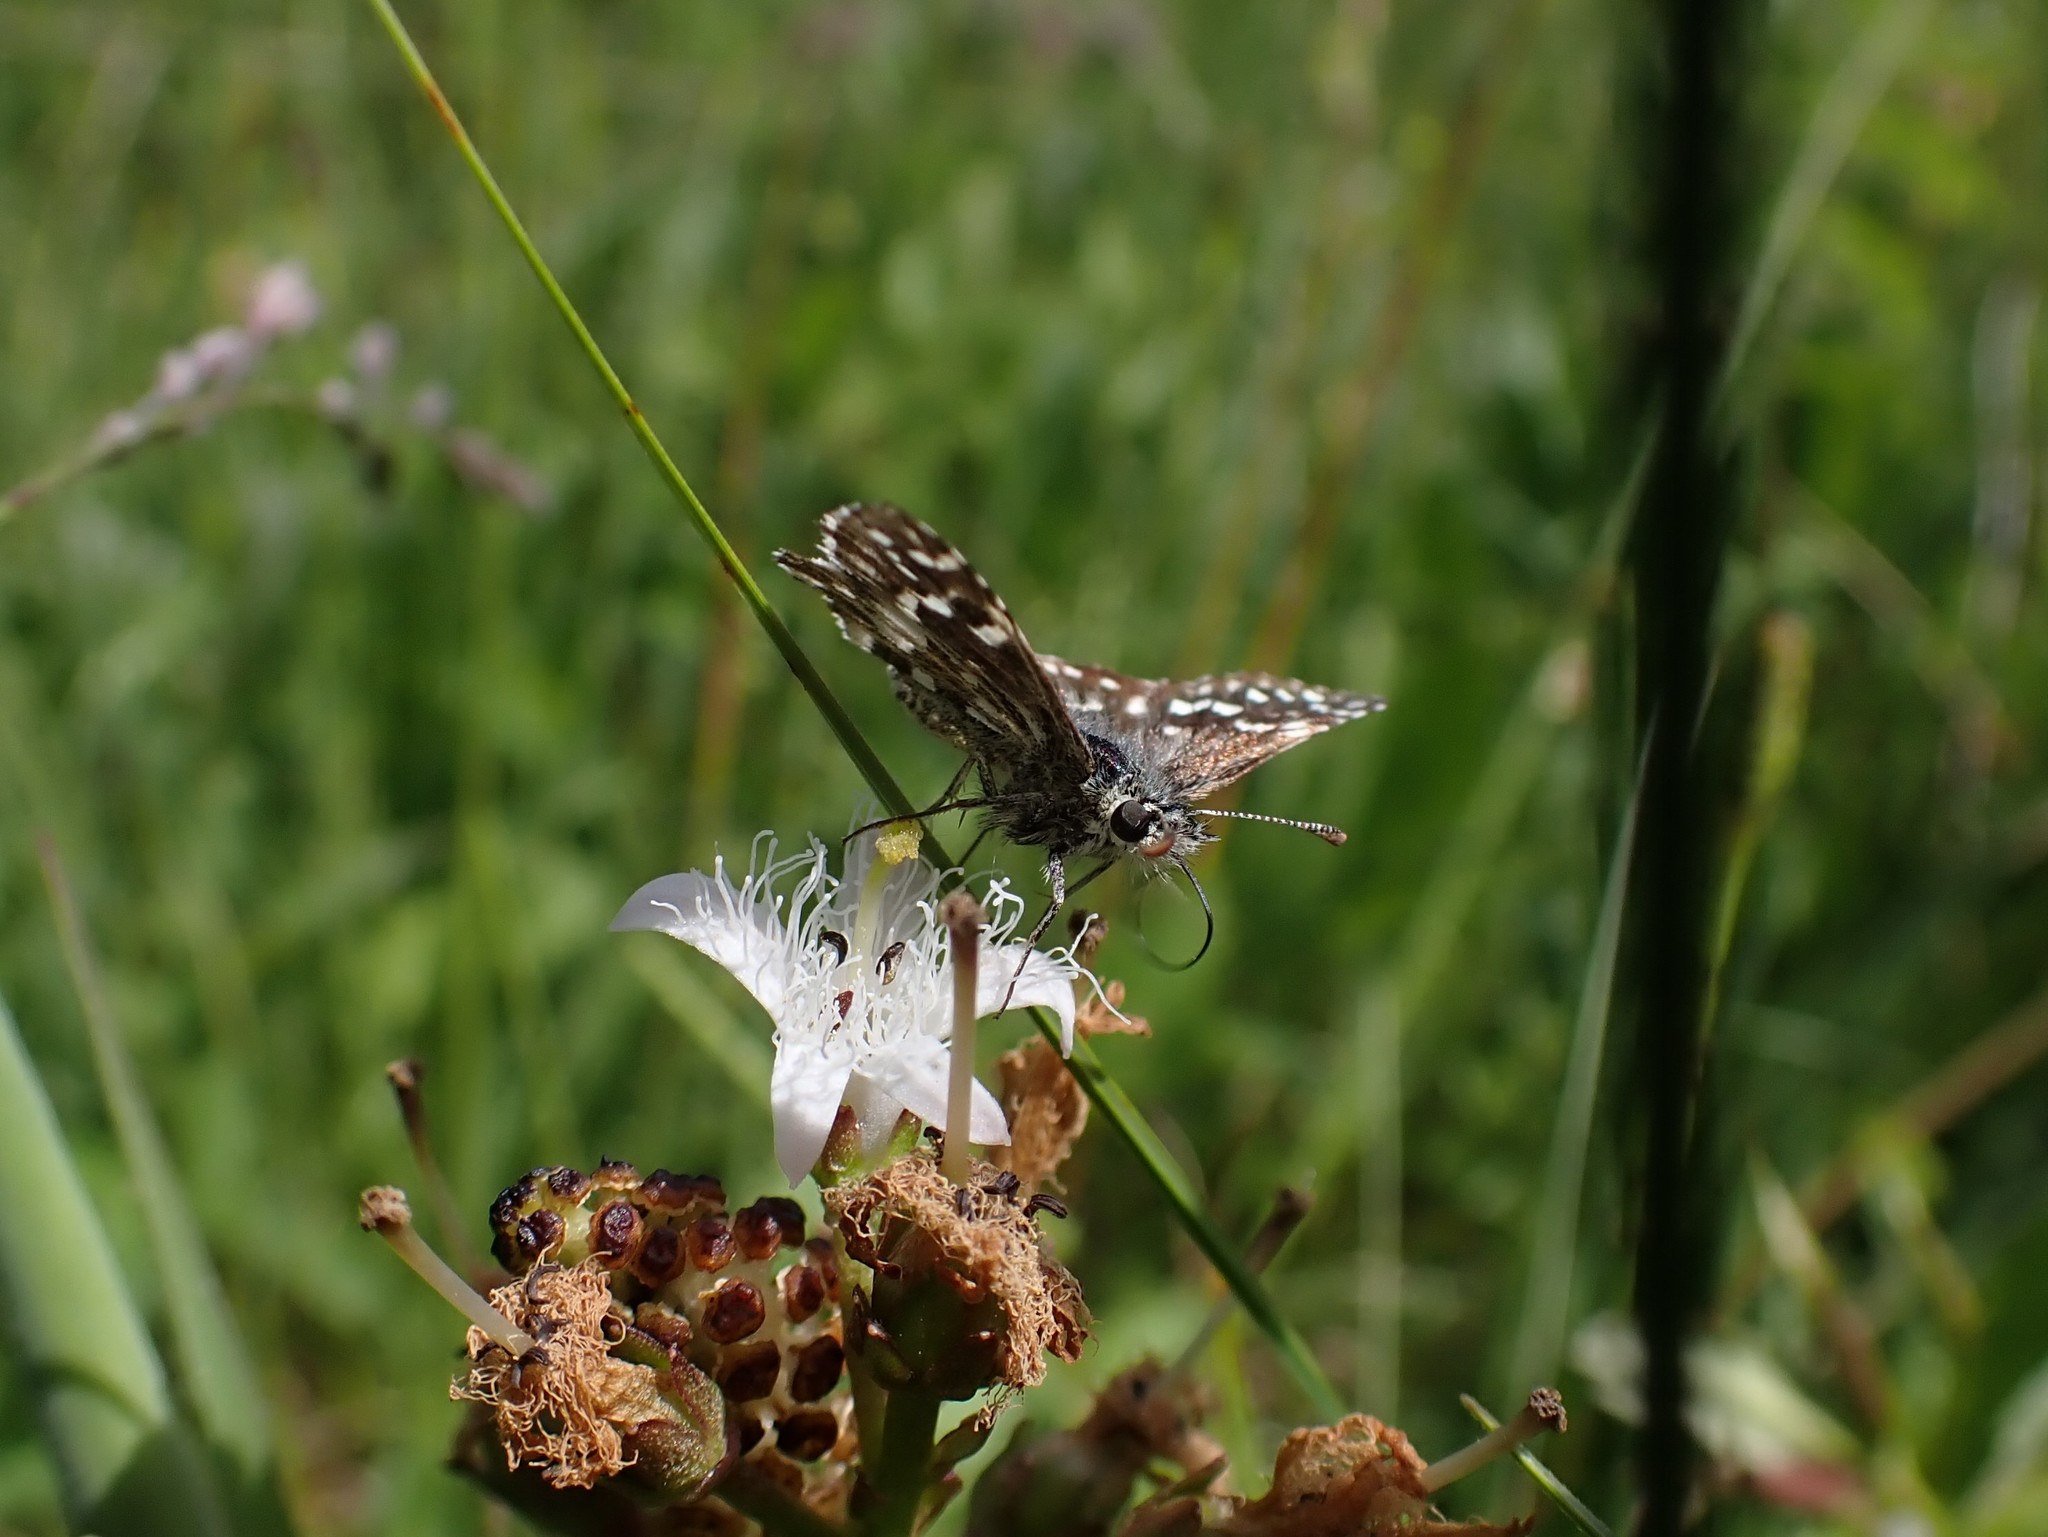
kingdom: Animalia
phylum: Arthropoda
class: Insecta
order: Lepidoptera
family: Hesperiidae
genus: Pyrgus
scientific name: Pyrgus malvae
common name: Grizzled skipper
